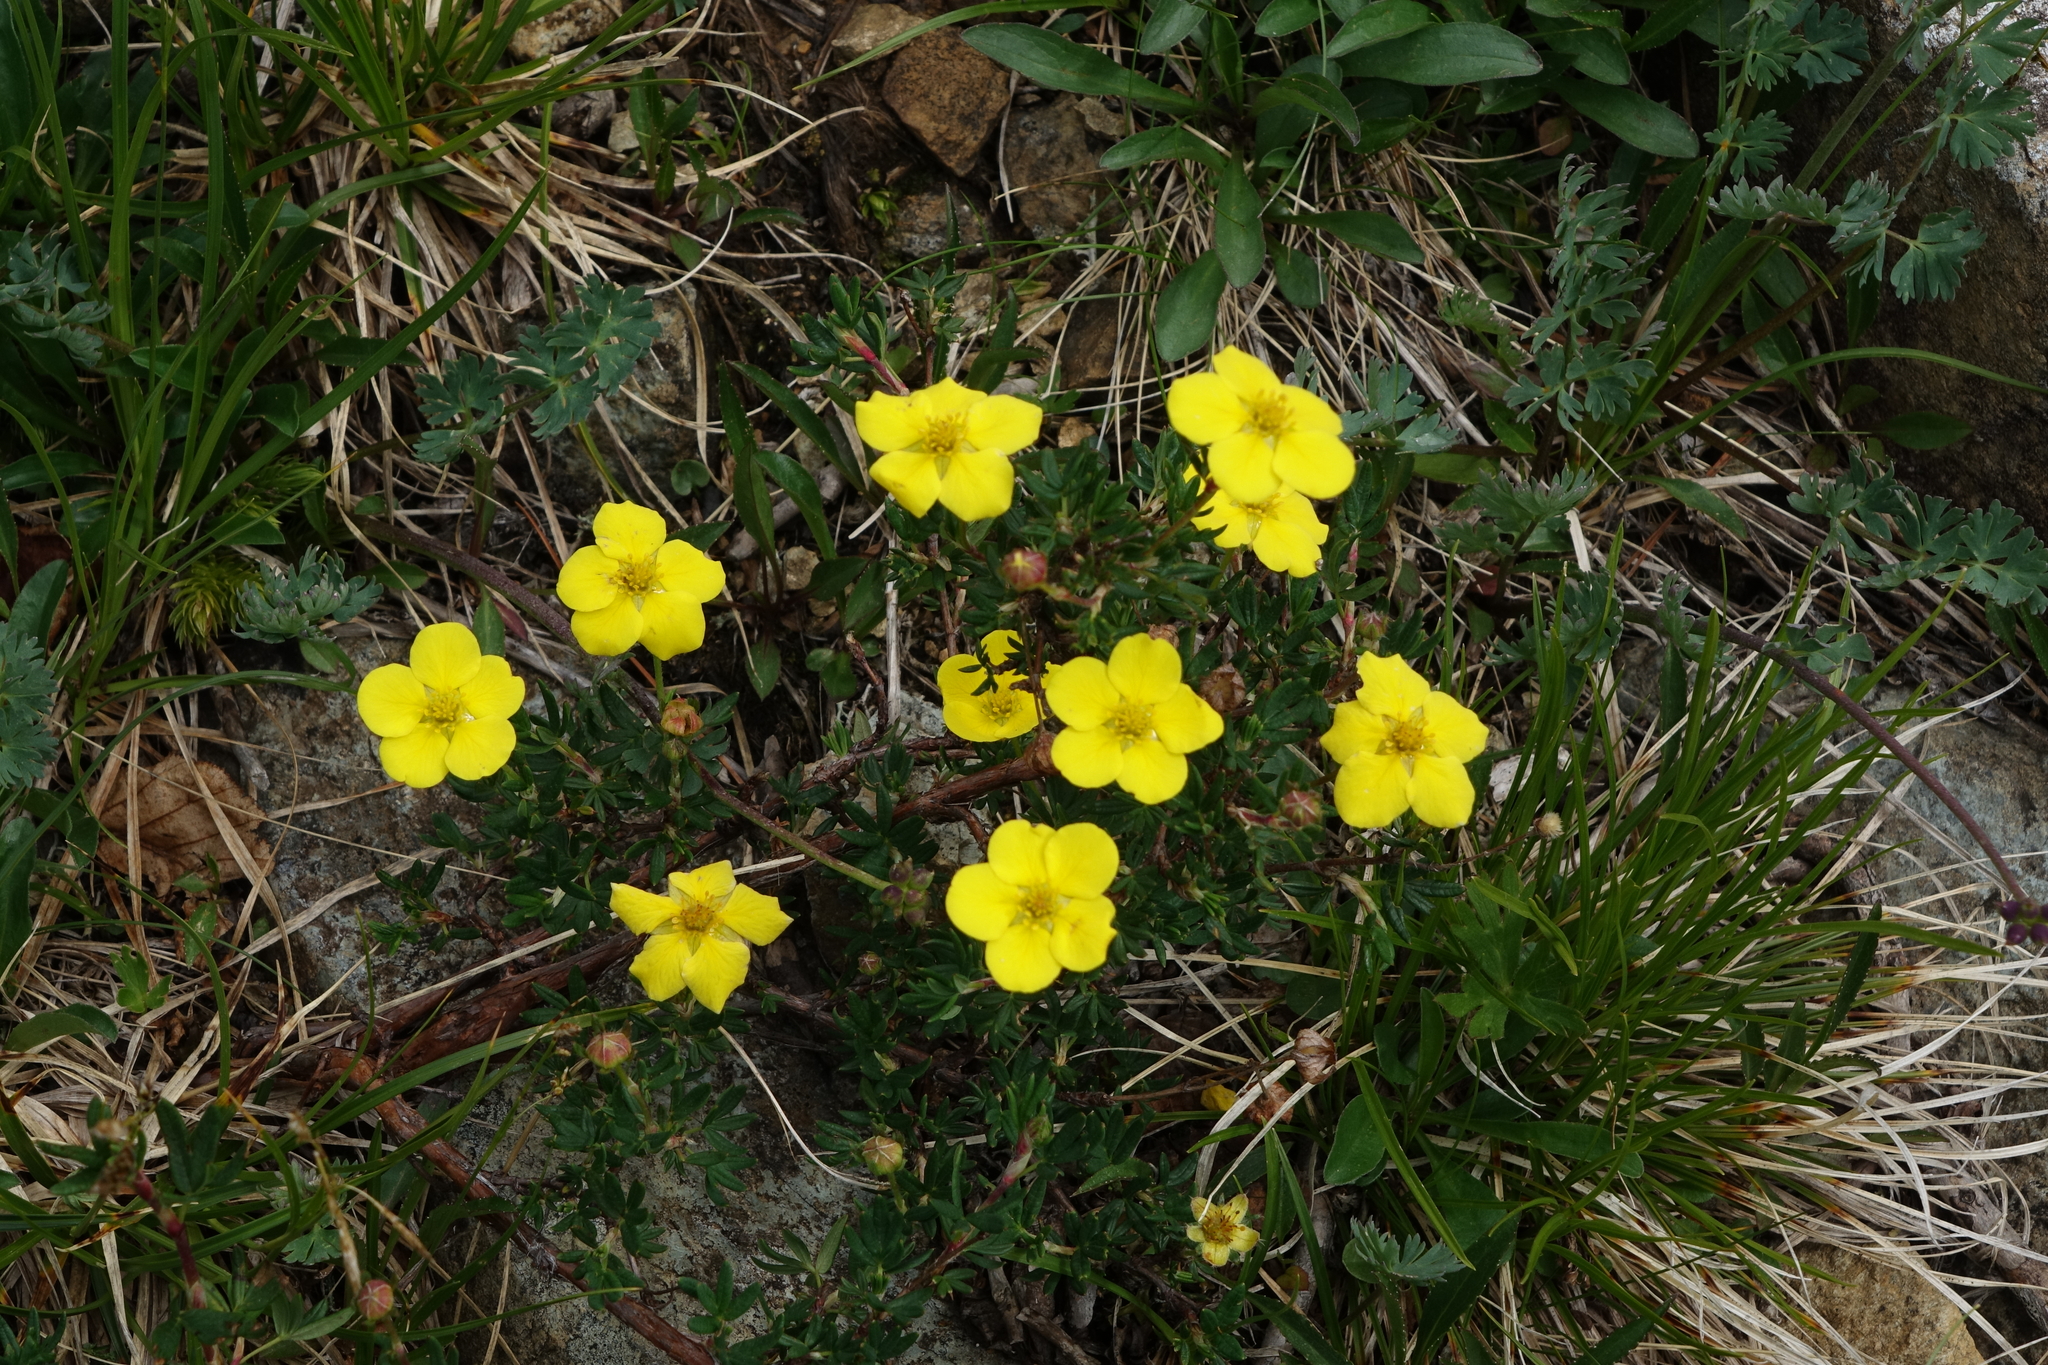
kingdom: Plantae
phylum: Tracheophyta
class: Magnoliopsida
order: Rosales
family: Rosaceae
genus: Dasiphora
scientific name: Dasiphora fruticosa
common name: Shrubby cinquefoil
